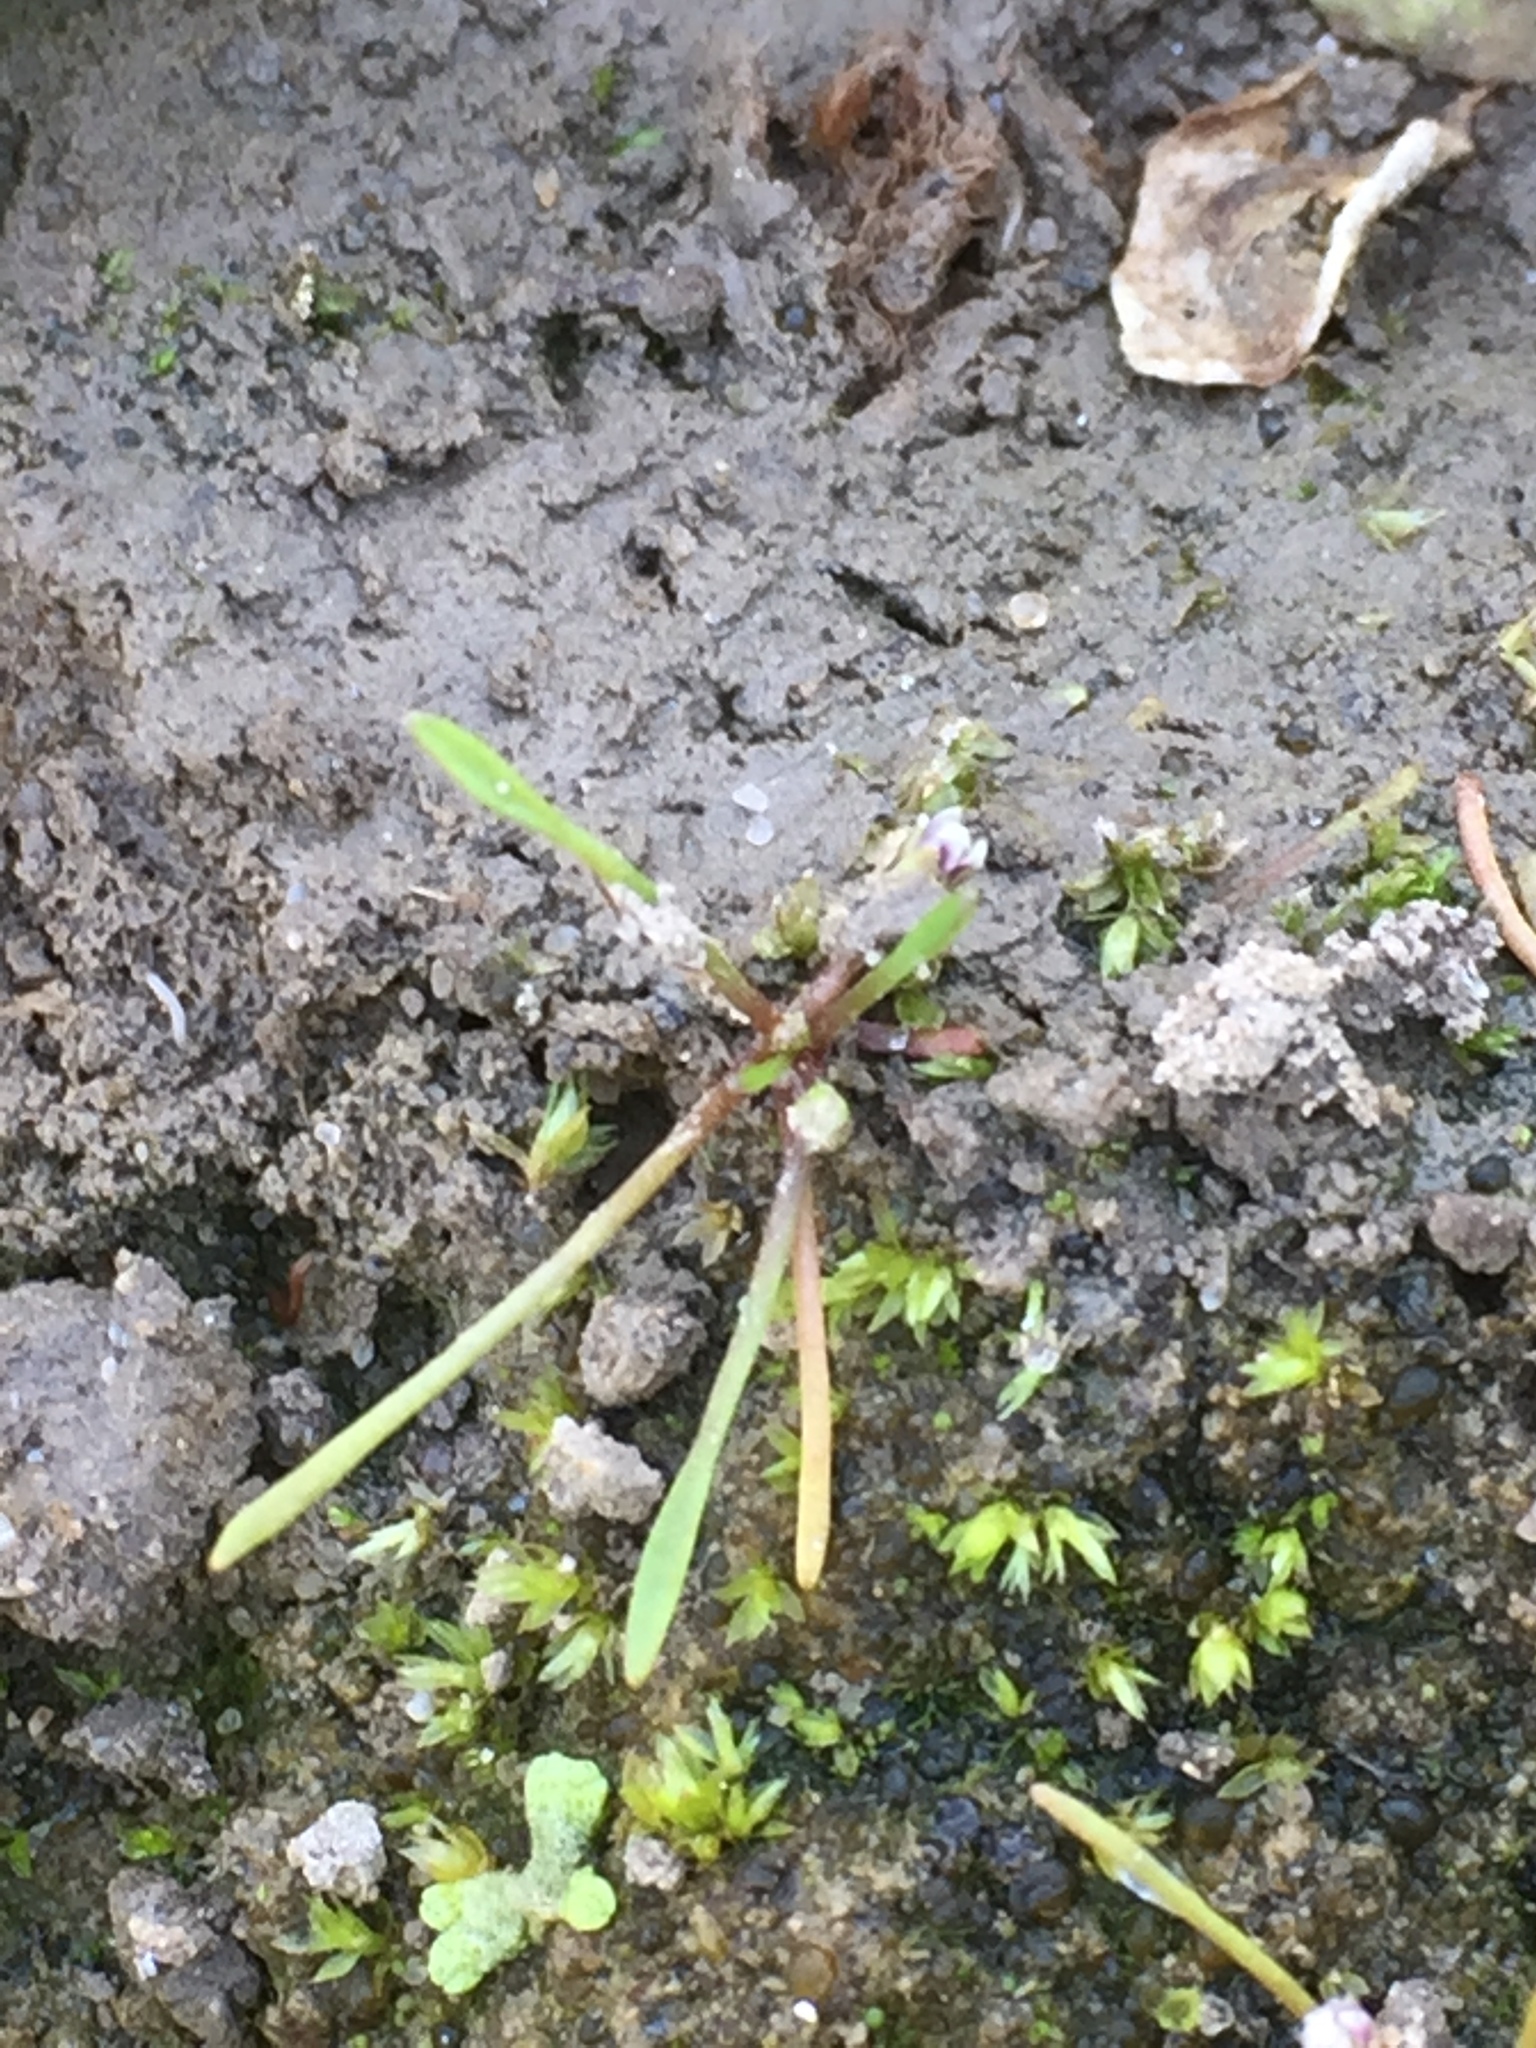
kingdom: Plantae
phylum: Tracheophyta
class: Magnoliopsida
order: Lamiales
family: Scrophulariaceae
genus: Limosella
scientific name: Limosella aquatica
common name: Mudwort
